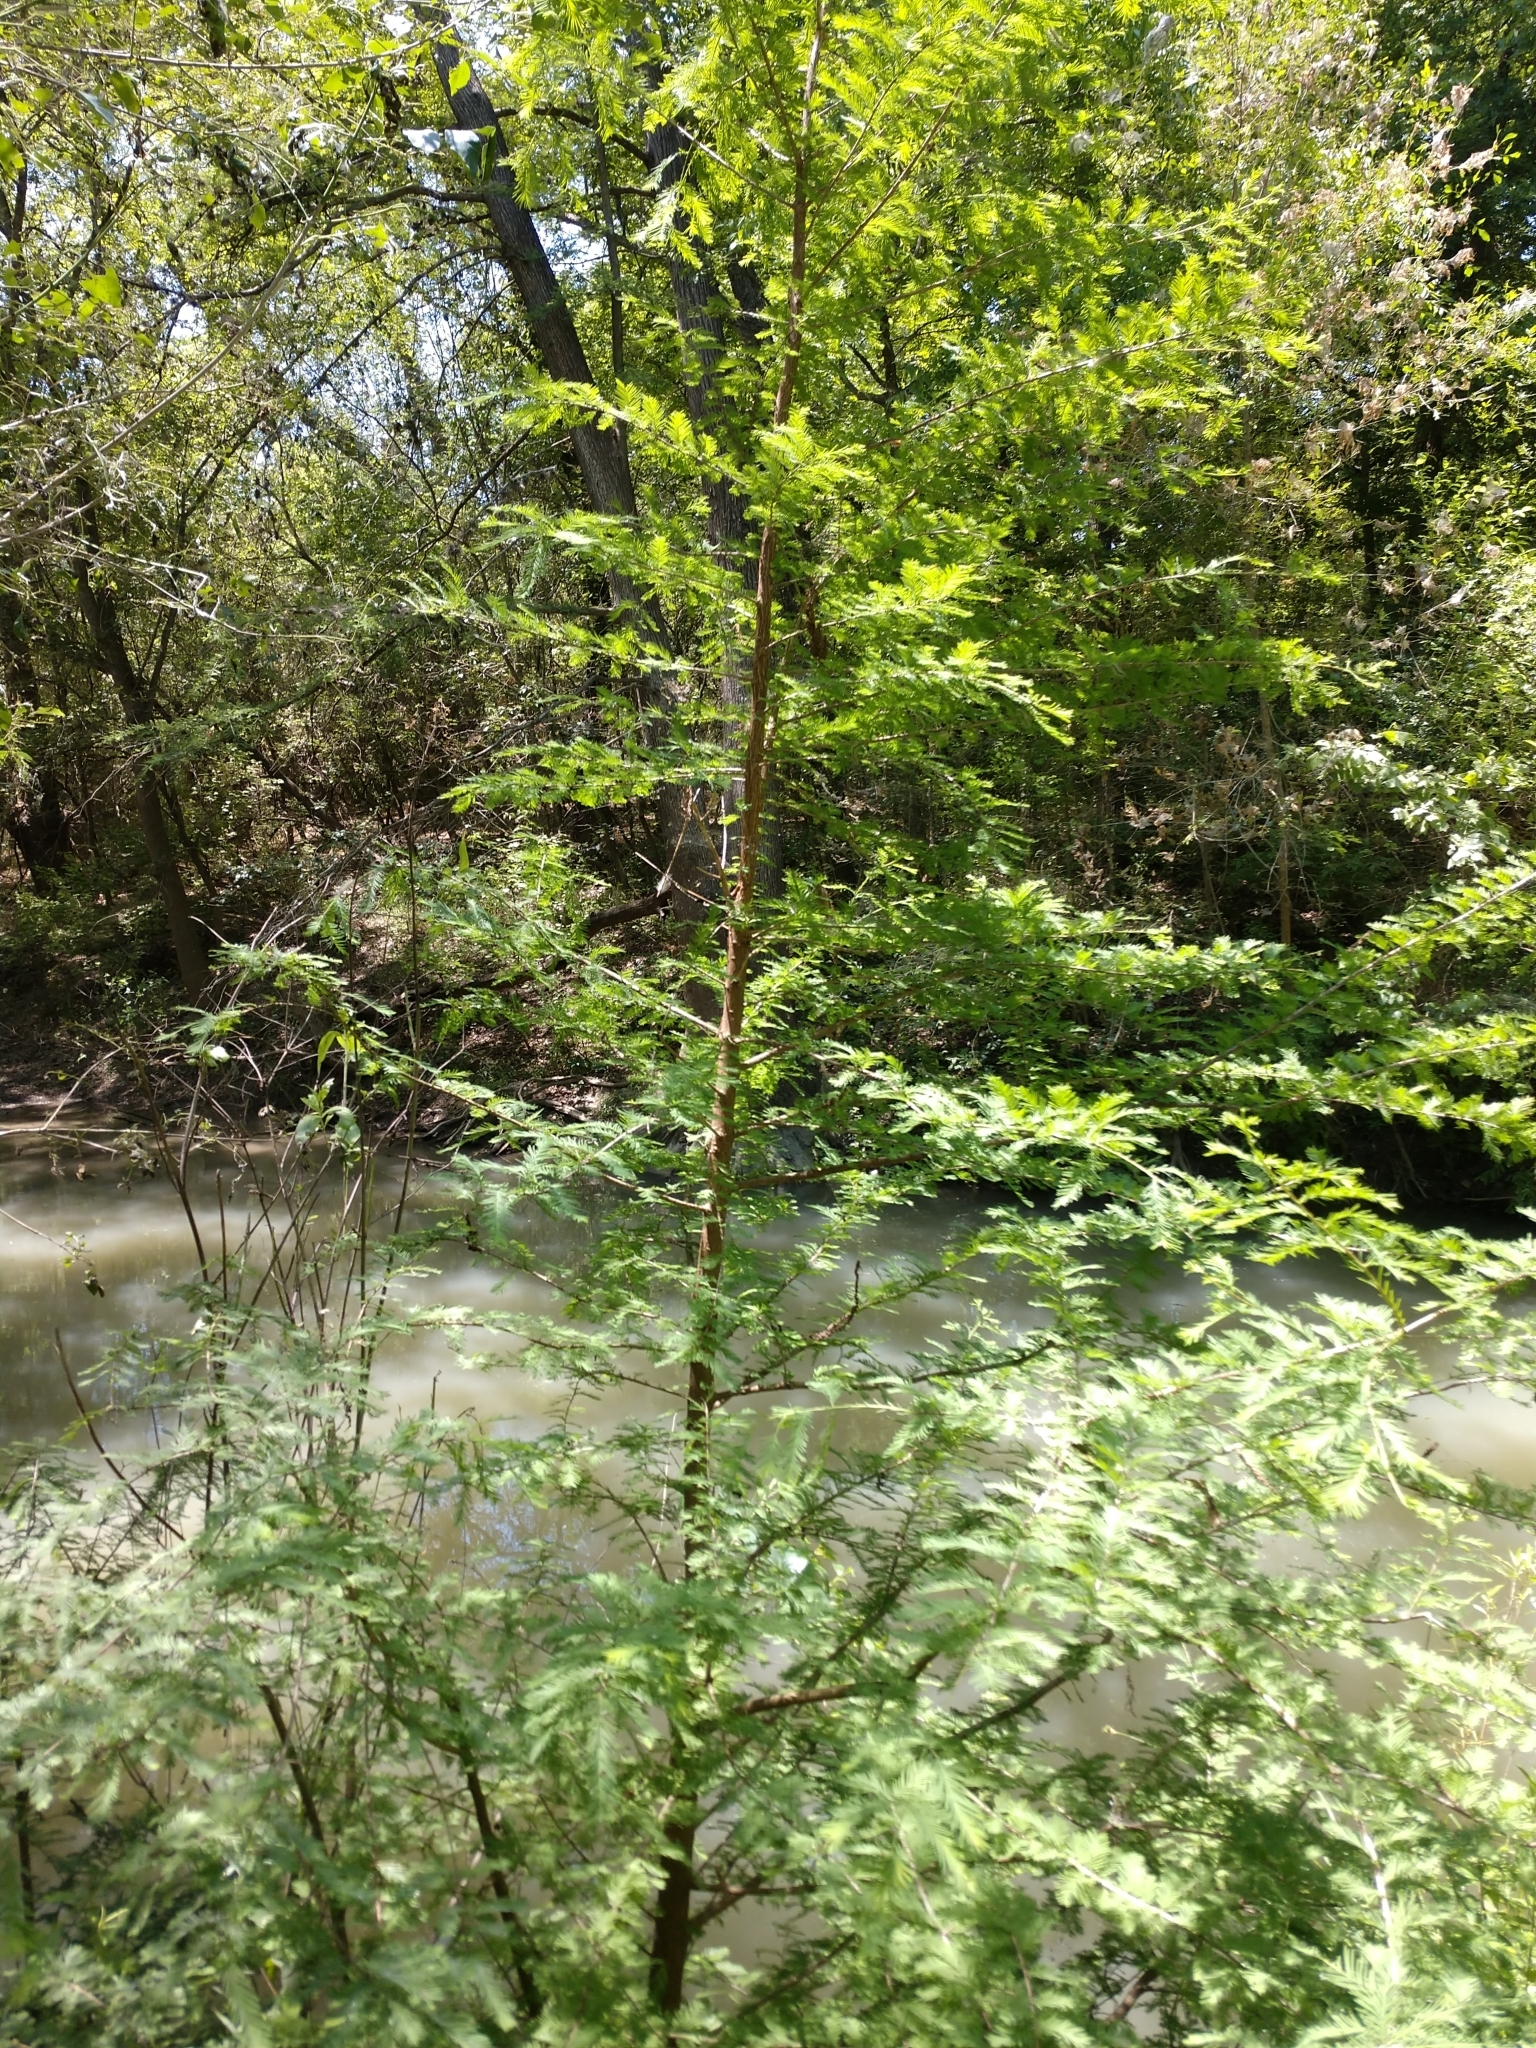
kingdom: Plantae
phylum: Tracheophyta
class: Pinopsida
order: Pinales
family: Cupressaceae
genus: Taxodium
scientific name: Taxodium distichum
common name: Bald cypress
